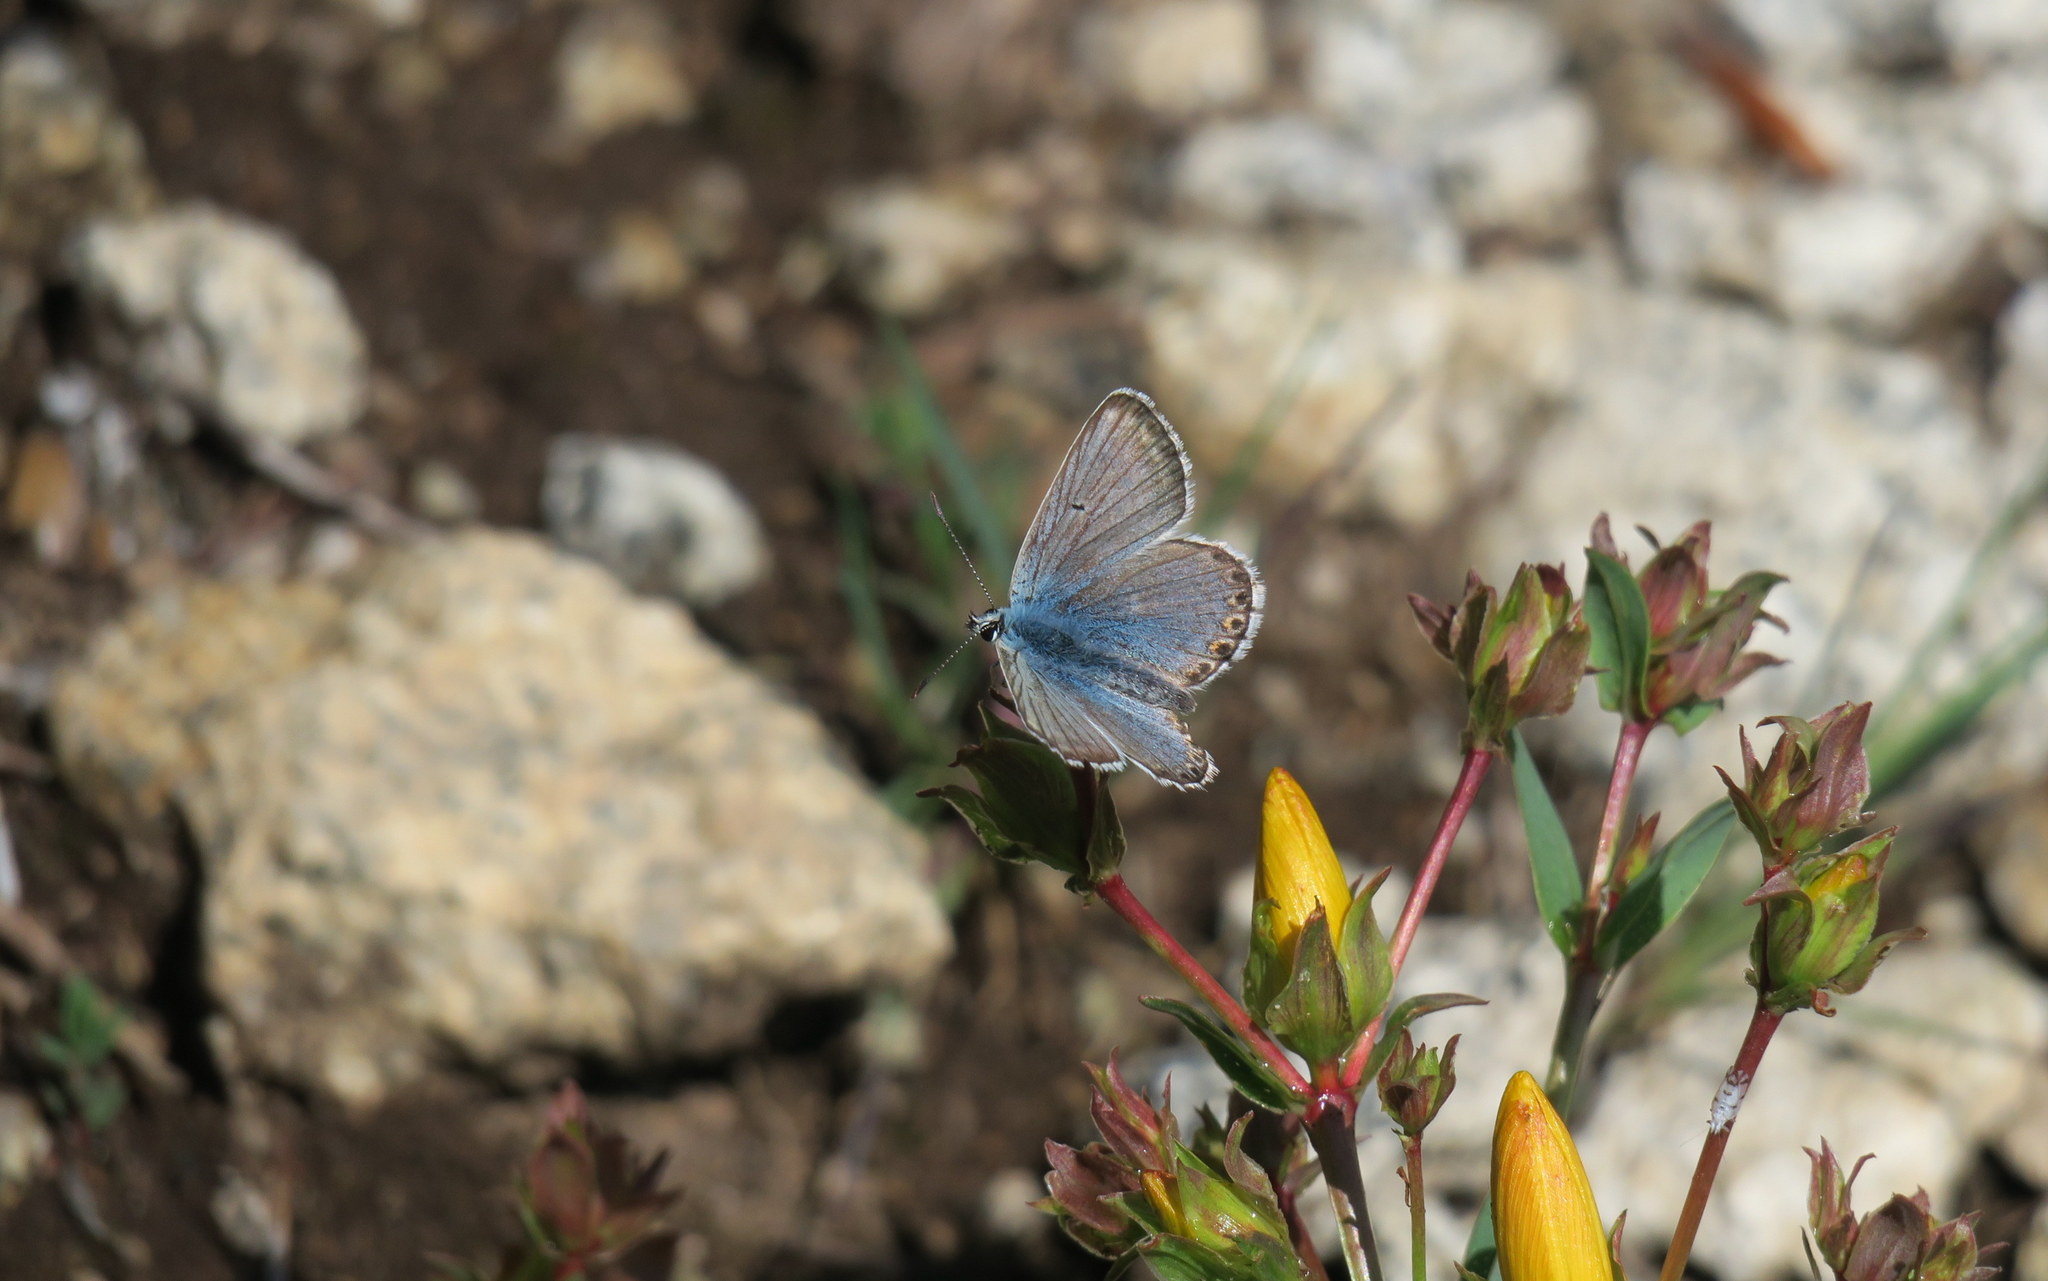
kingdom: Animalia
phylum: Arthropoda
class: Insecta
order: Lepidoptera
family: Lycaenidae
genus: Polyommatus
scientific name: Polyommatus eros
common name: Eros blue
